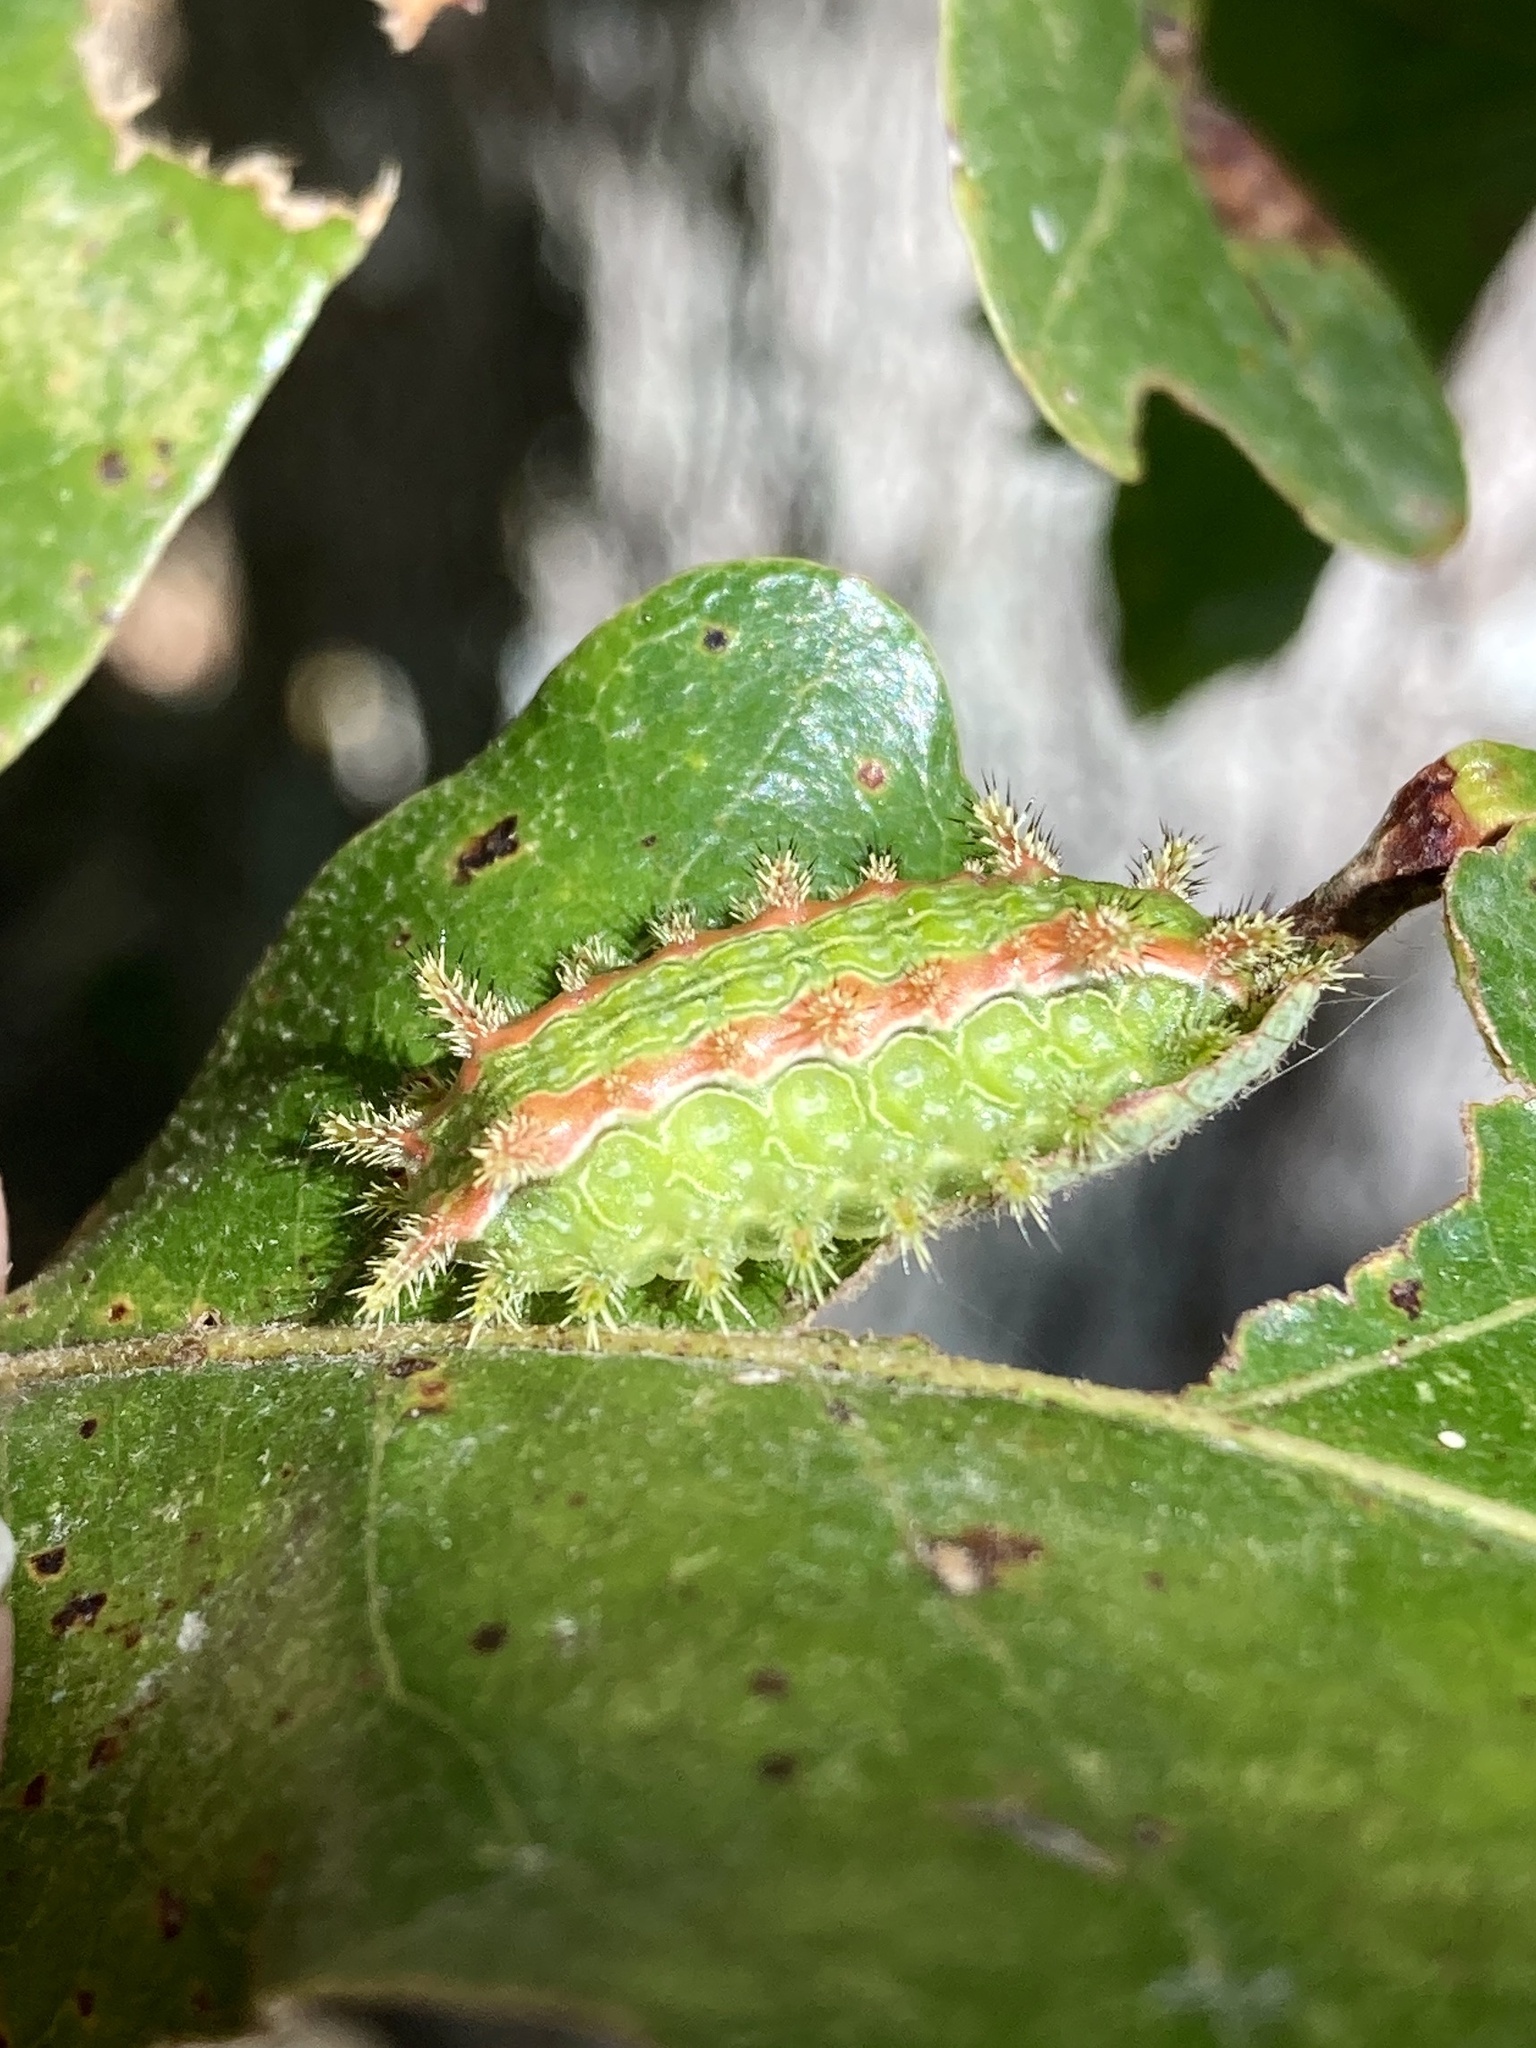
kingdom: Animalia
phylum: Arthropoda
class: Insecta
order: Lepidoptera
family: Limacodidae
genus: Euclea
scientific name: Euclea incisa
